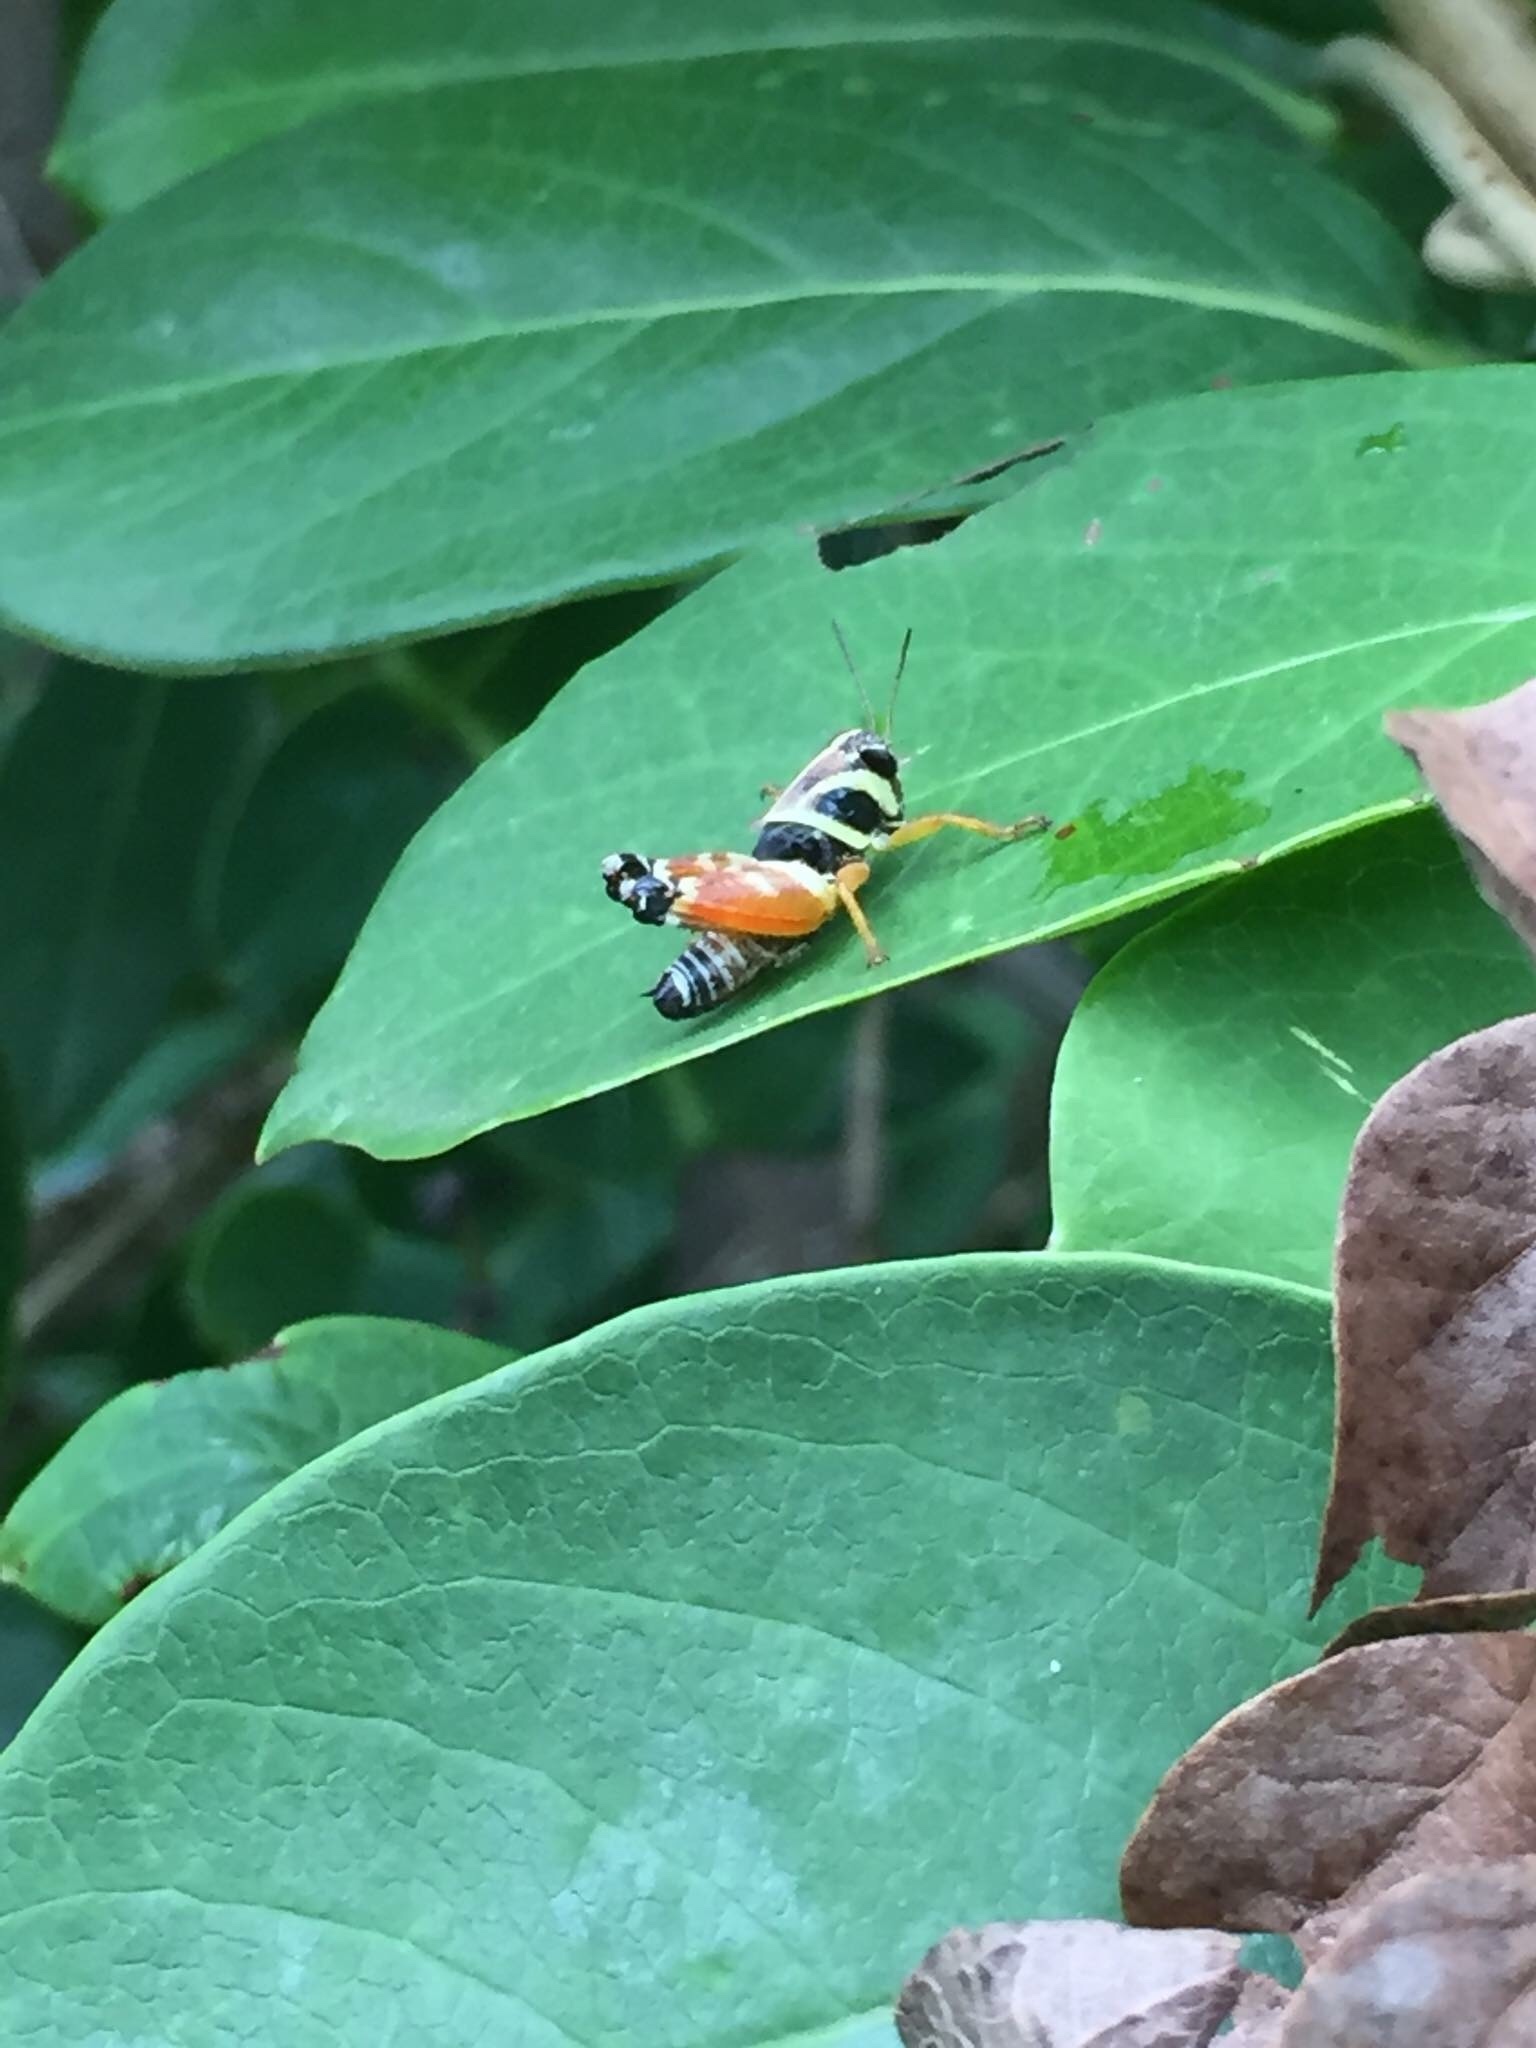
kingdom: Animalia
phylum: Arthropoda
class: Insecta
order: Orthoptera
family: Acrididae
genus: Aidemona
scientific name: Aidemona azteca
